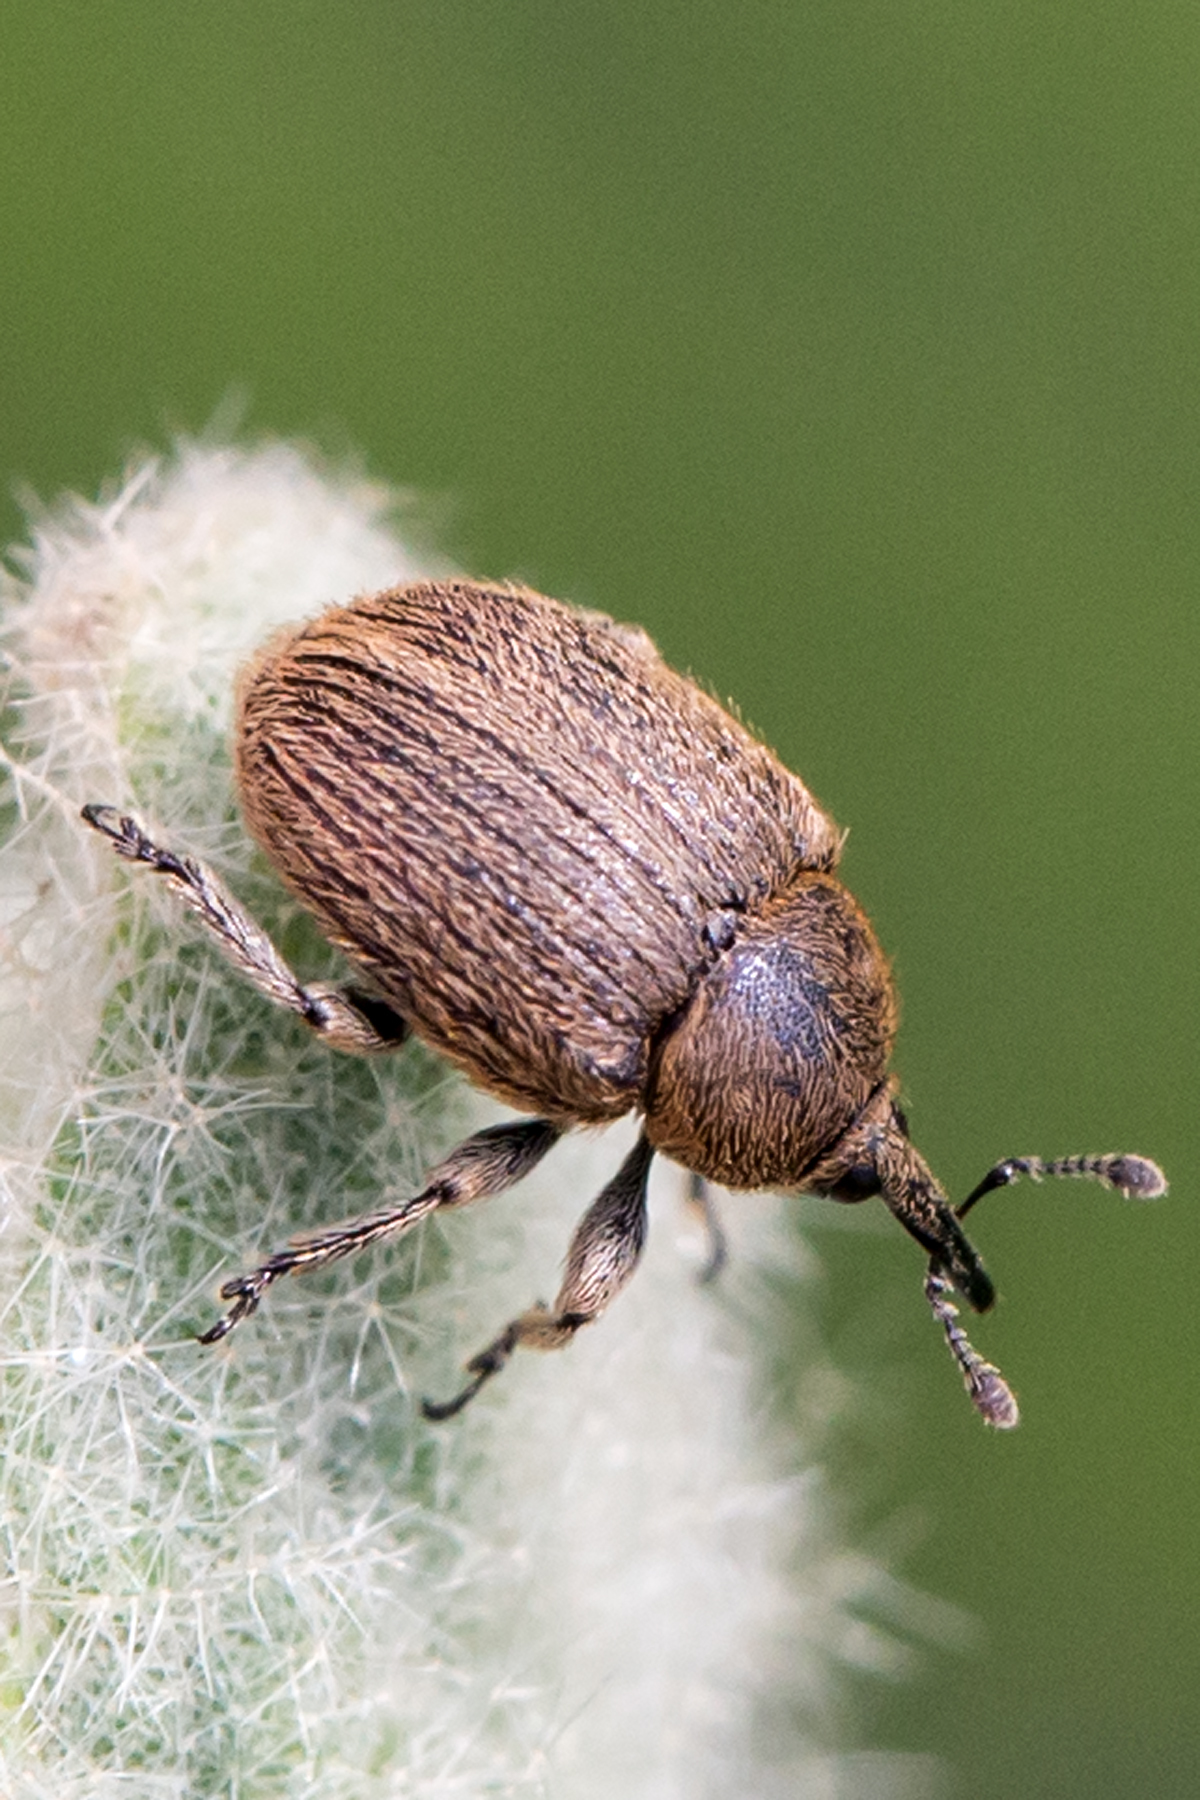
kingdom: Animalia
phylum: Arthropoda
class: Insecta
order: Coleoptera
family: Curculionidae
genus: Rhinusa
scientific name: Rhinusa tetra
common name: Weevil
